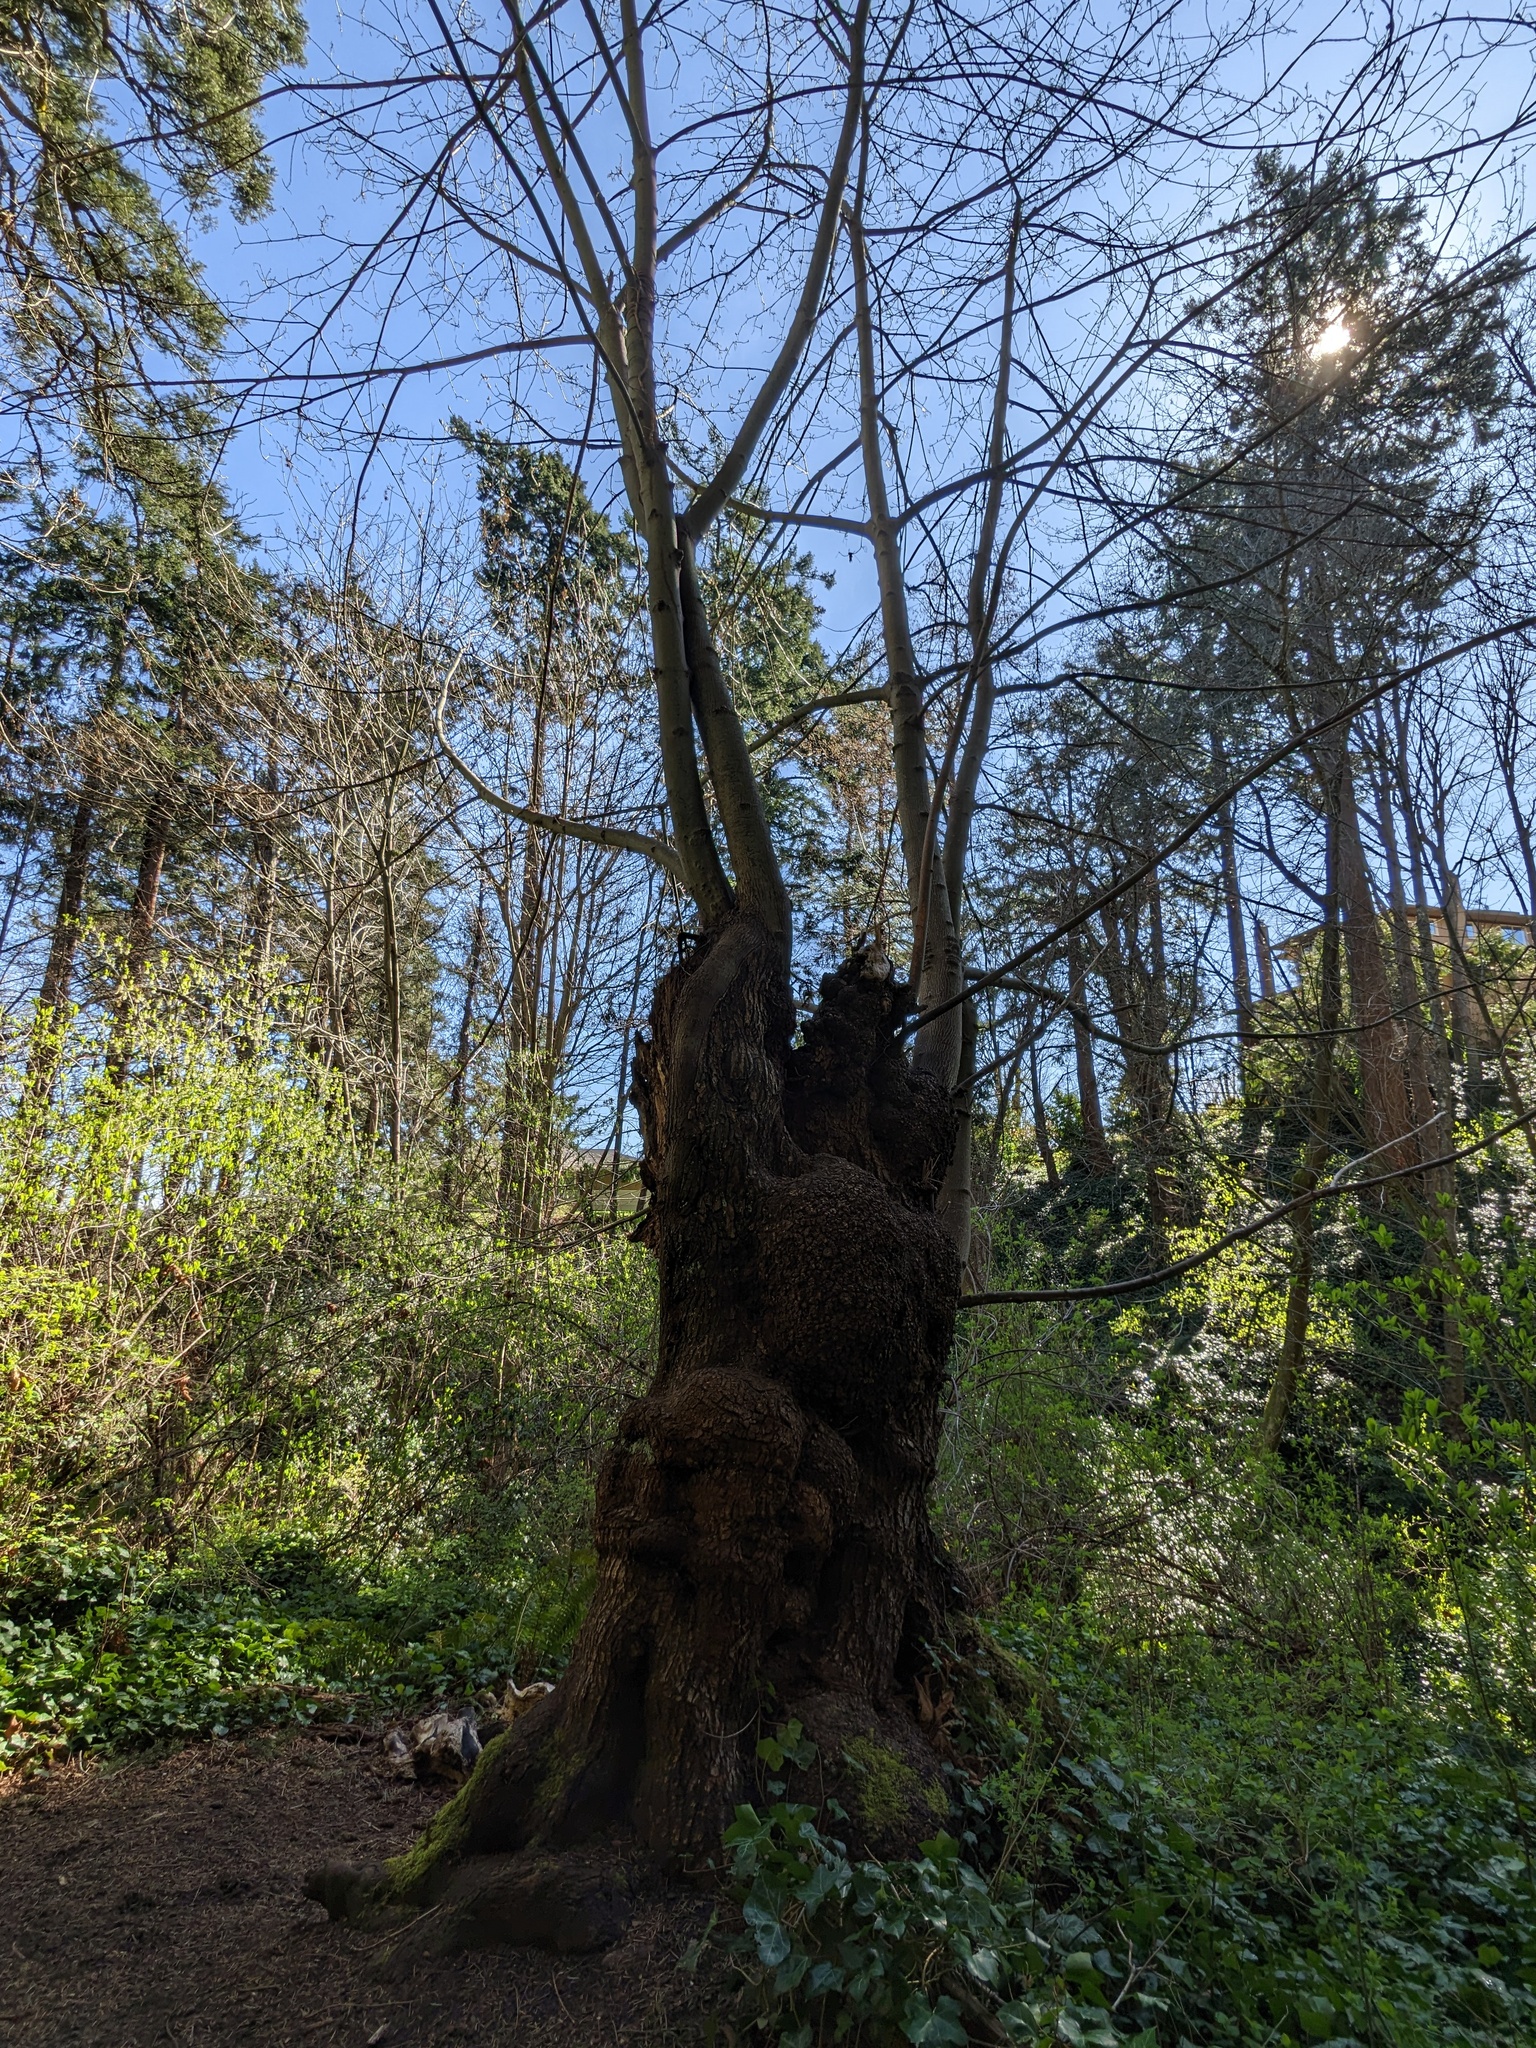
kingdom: Plantae
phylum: Tracheophyta
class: Magnoliopsida
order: Sapindales
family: Sapindaceae
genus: Acer
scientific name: Acer macrophyllum
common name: Oregon maple
